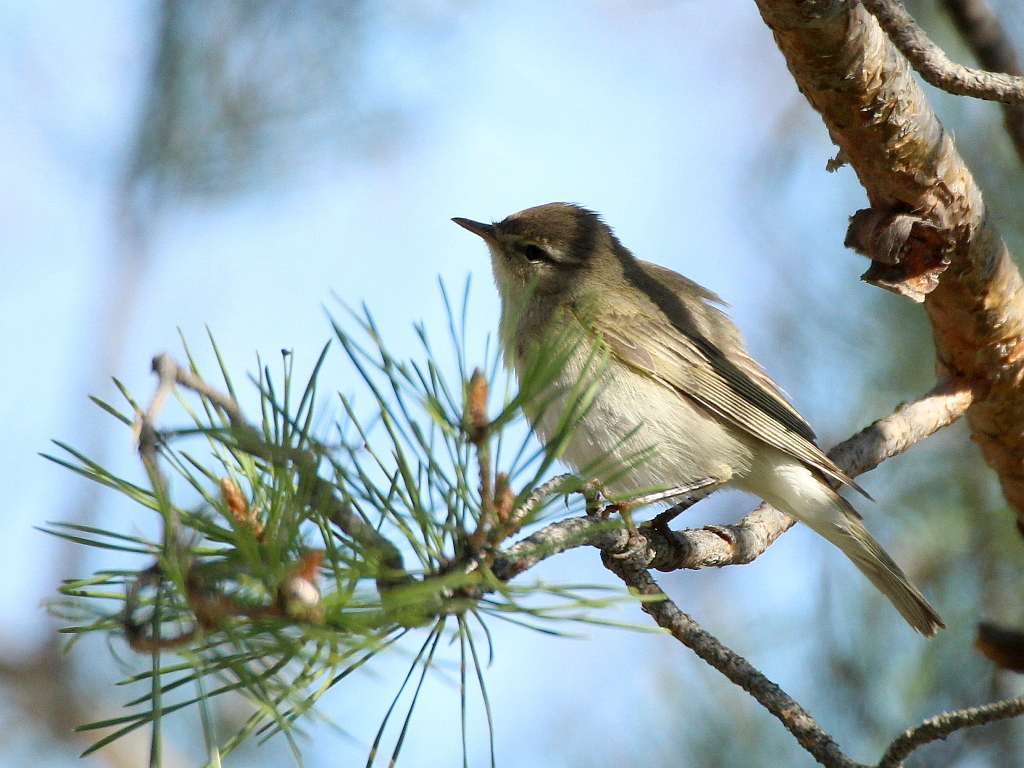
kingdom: Animalia
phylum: Chordata
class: Aves
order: Passeriformes
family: Phylloscopidae
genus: Phylloscopus
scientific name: Phylloscopus trochilus
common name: Willow warbler
